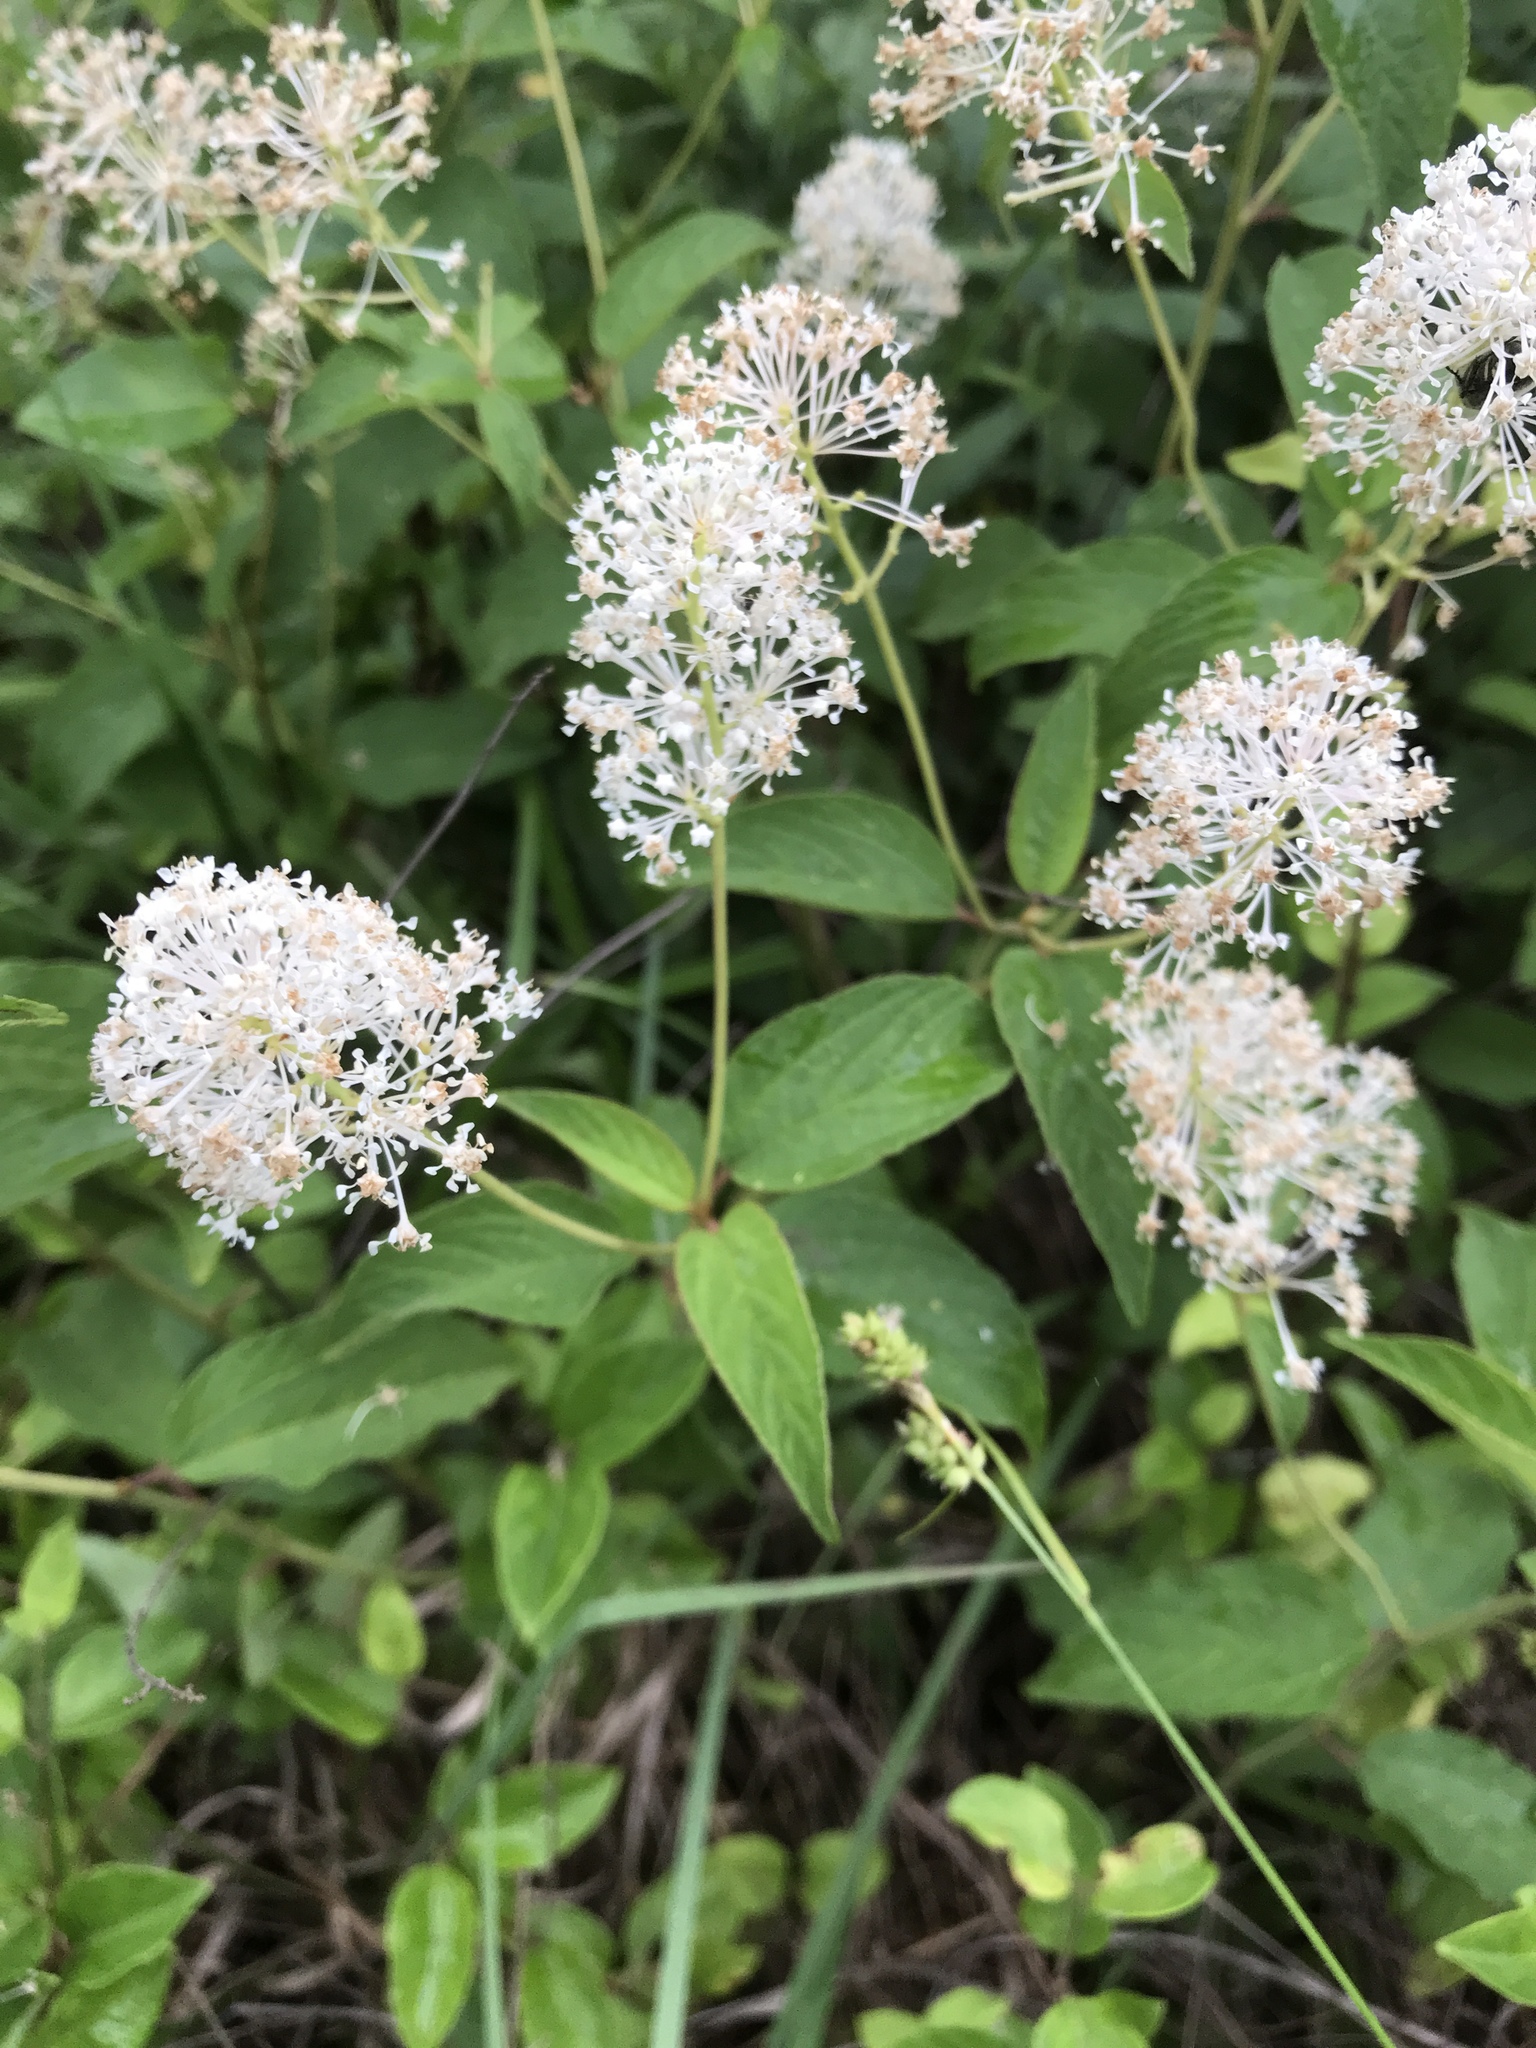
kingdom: Plantae
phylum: Tracheophyta
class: Magnoliopsida
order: Rosales
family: Rhamnaceae
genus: Ceanothus
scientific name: Ceanothus americanus
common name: Redroot
